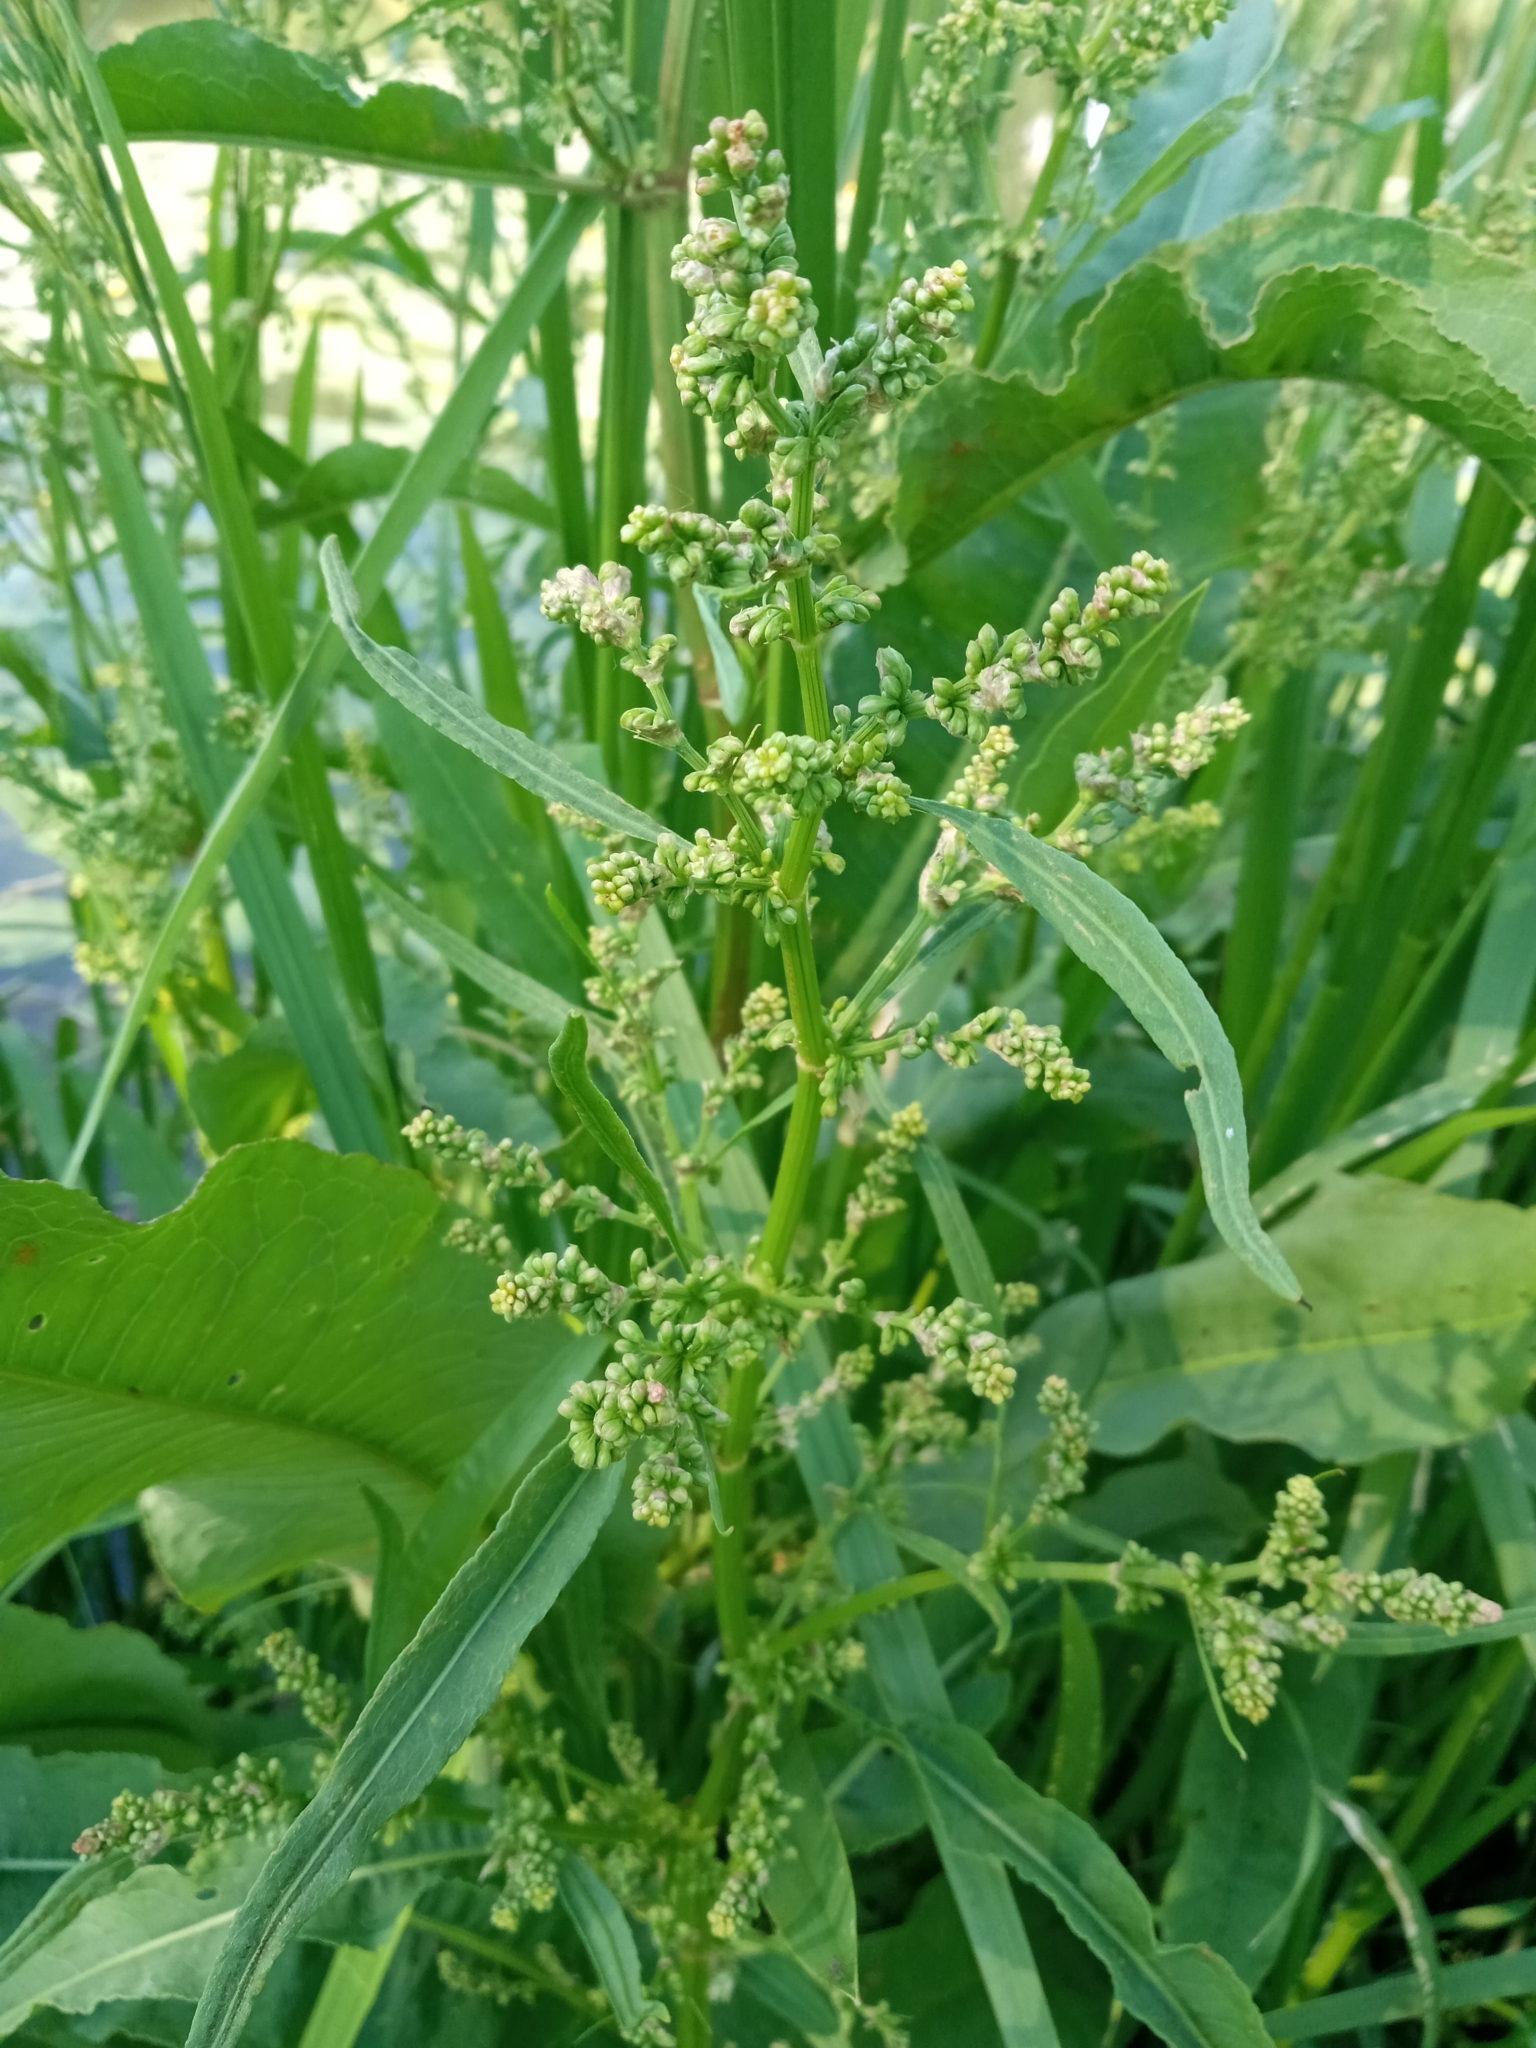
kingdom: Plantae
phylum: Tracheophyta
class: Magnoliopsida
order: Caryophyllales
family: Polygonaceae
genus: Rumex
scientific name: Rumex hydrolapathum
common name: Water dock
